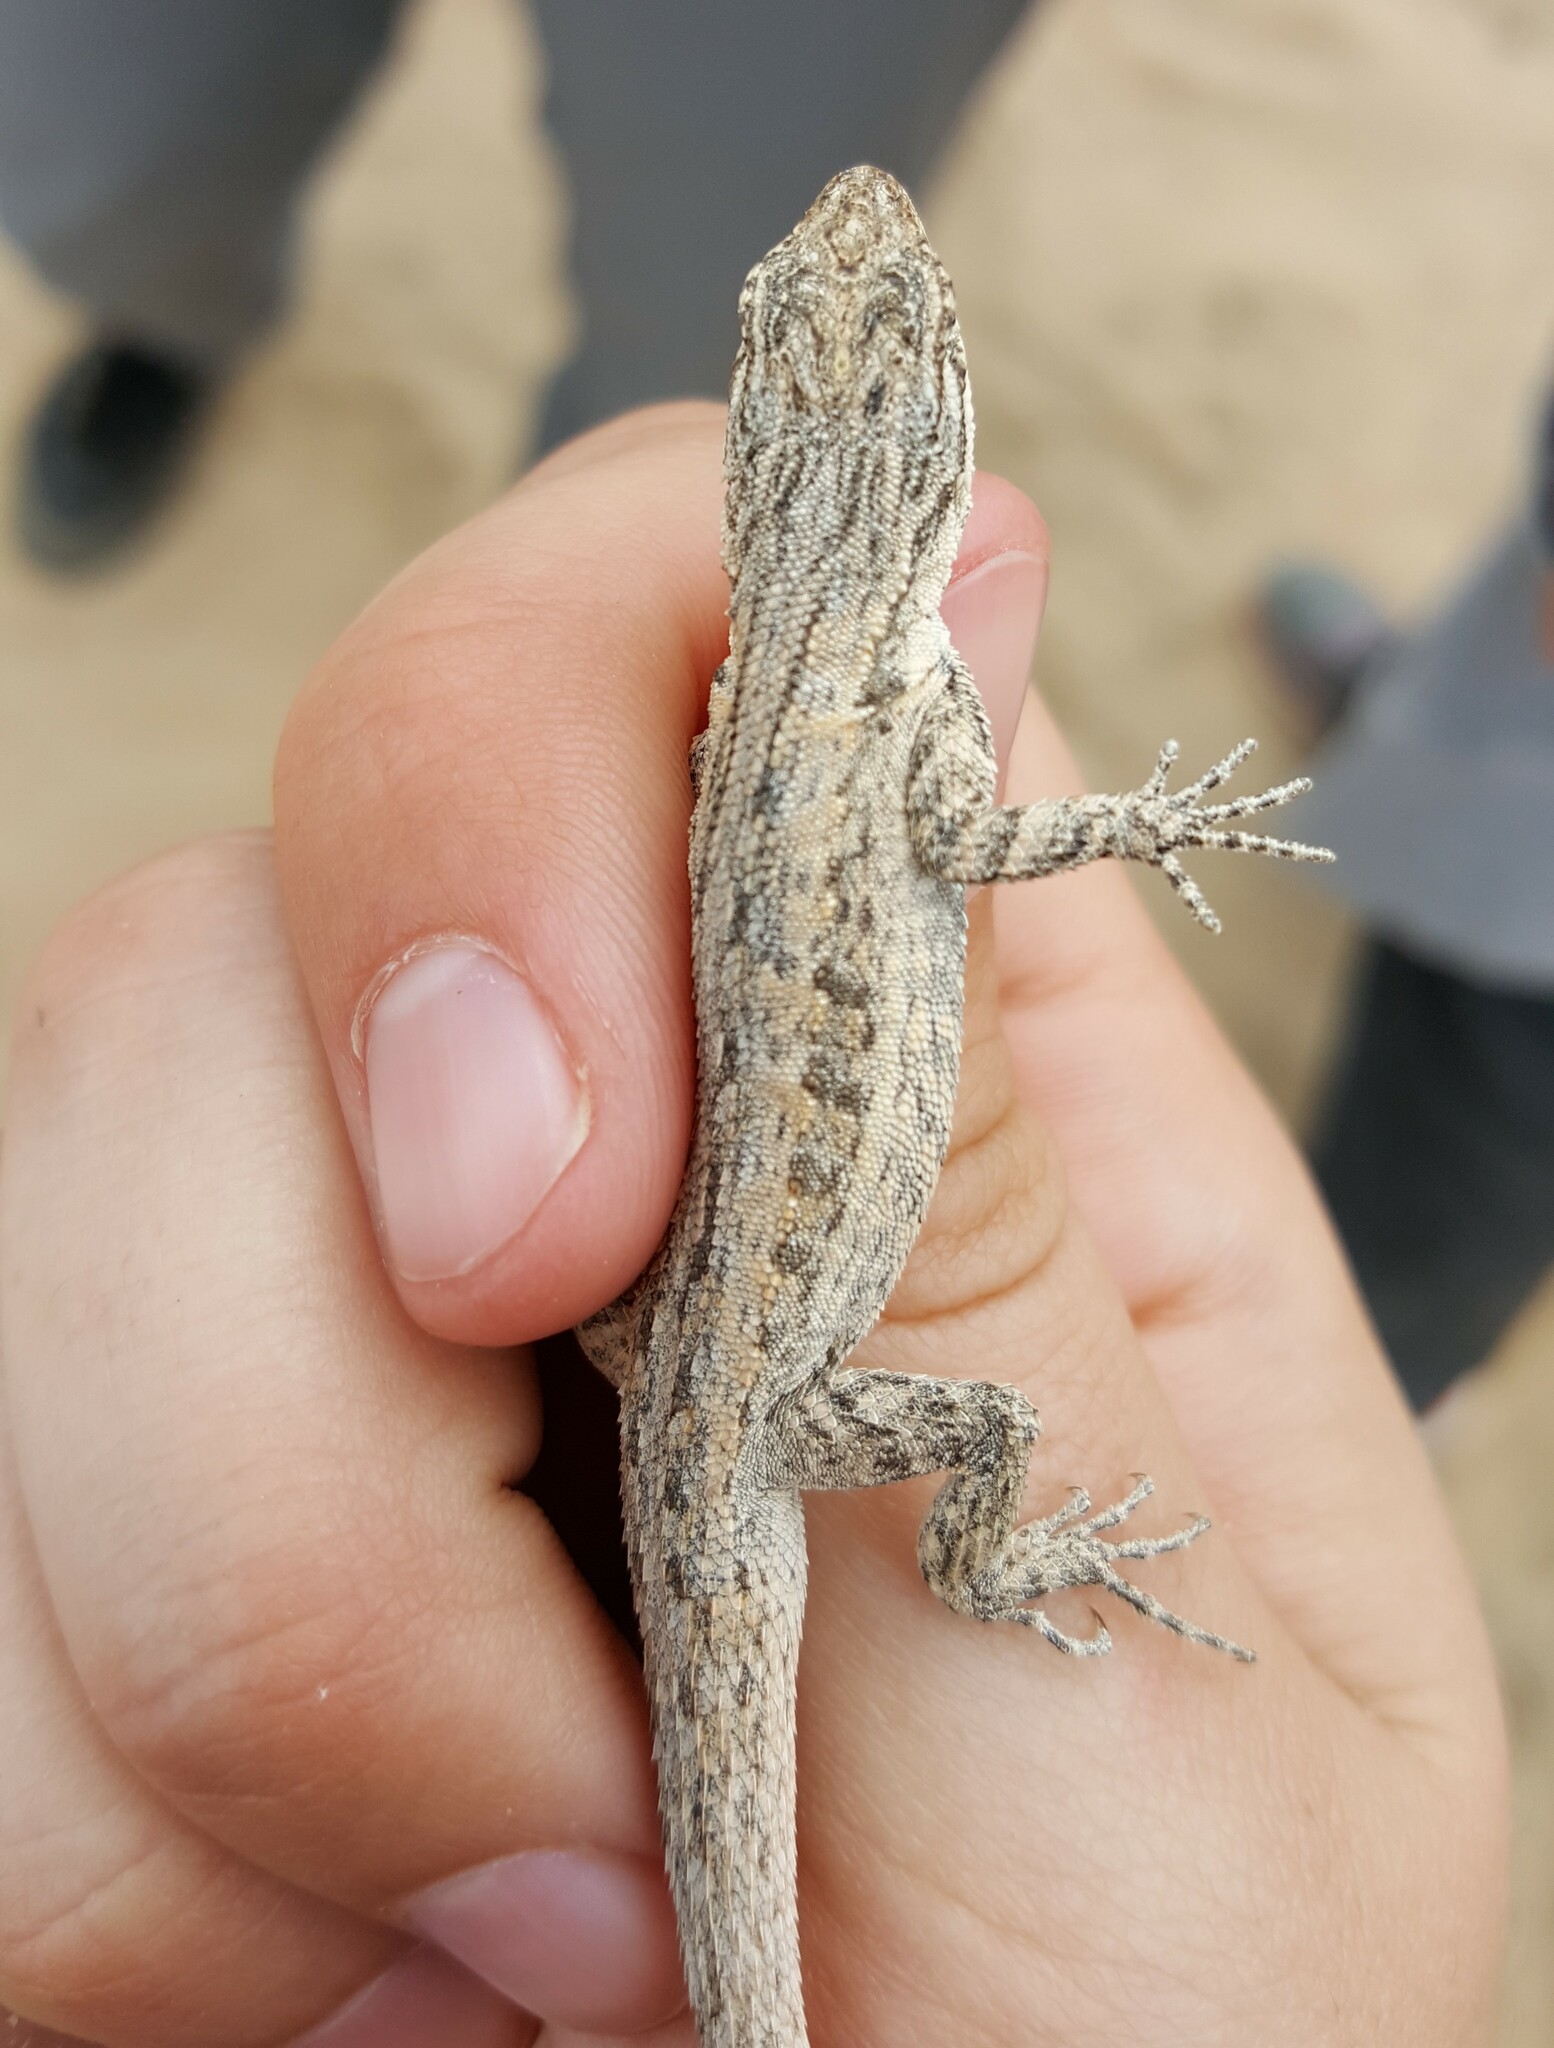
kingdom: Animalia
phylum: Chordata
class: Squamata
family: Phrynosomatidae
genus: Urosaurus
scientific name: Urosaurus graciosus
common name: Long-tailed brush lizard
